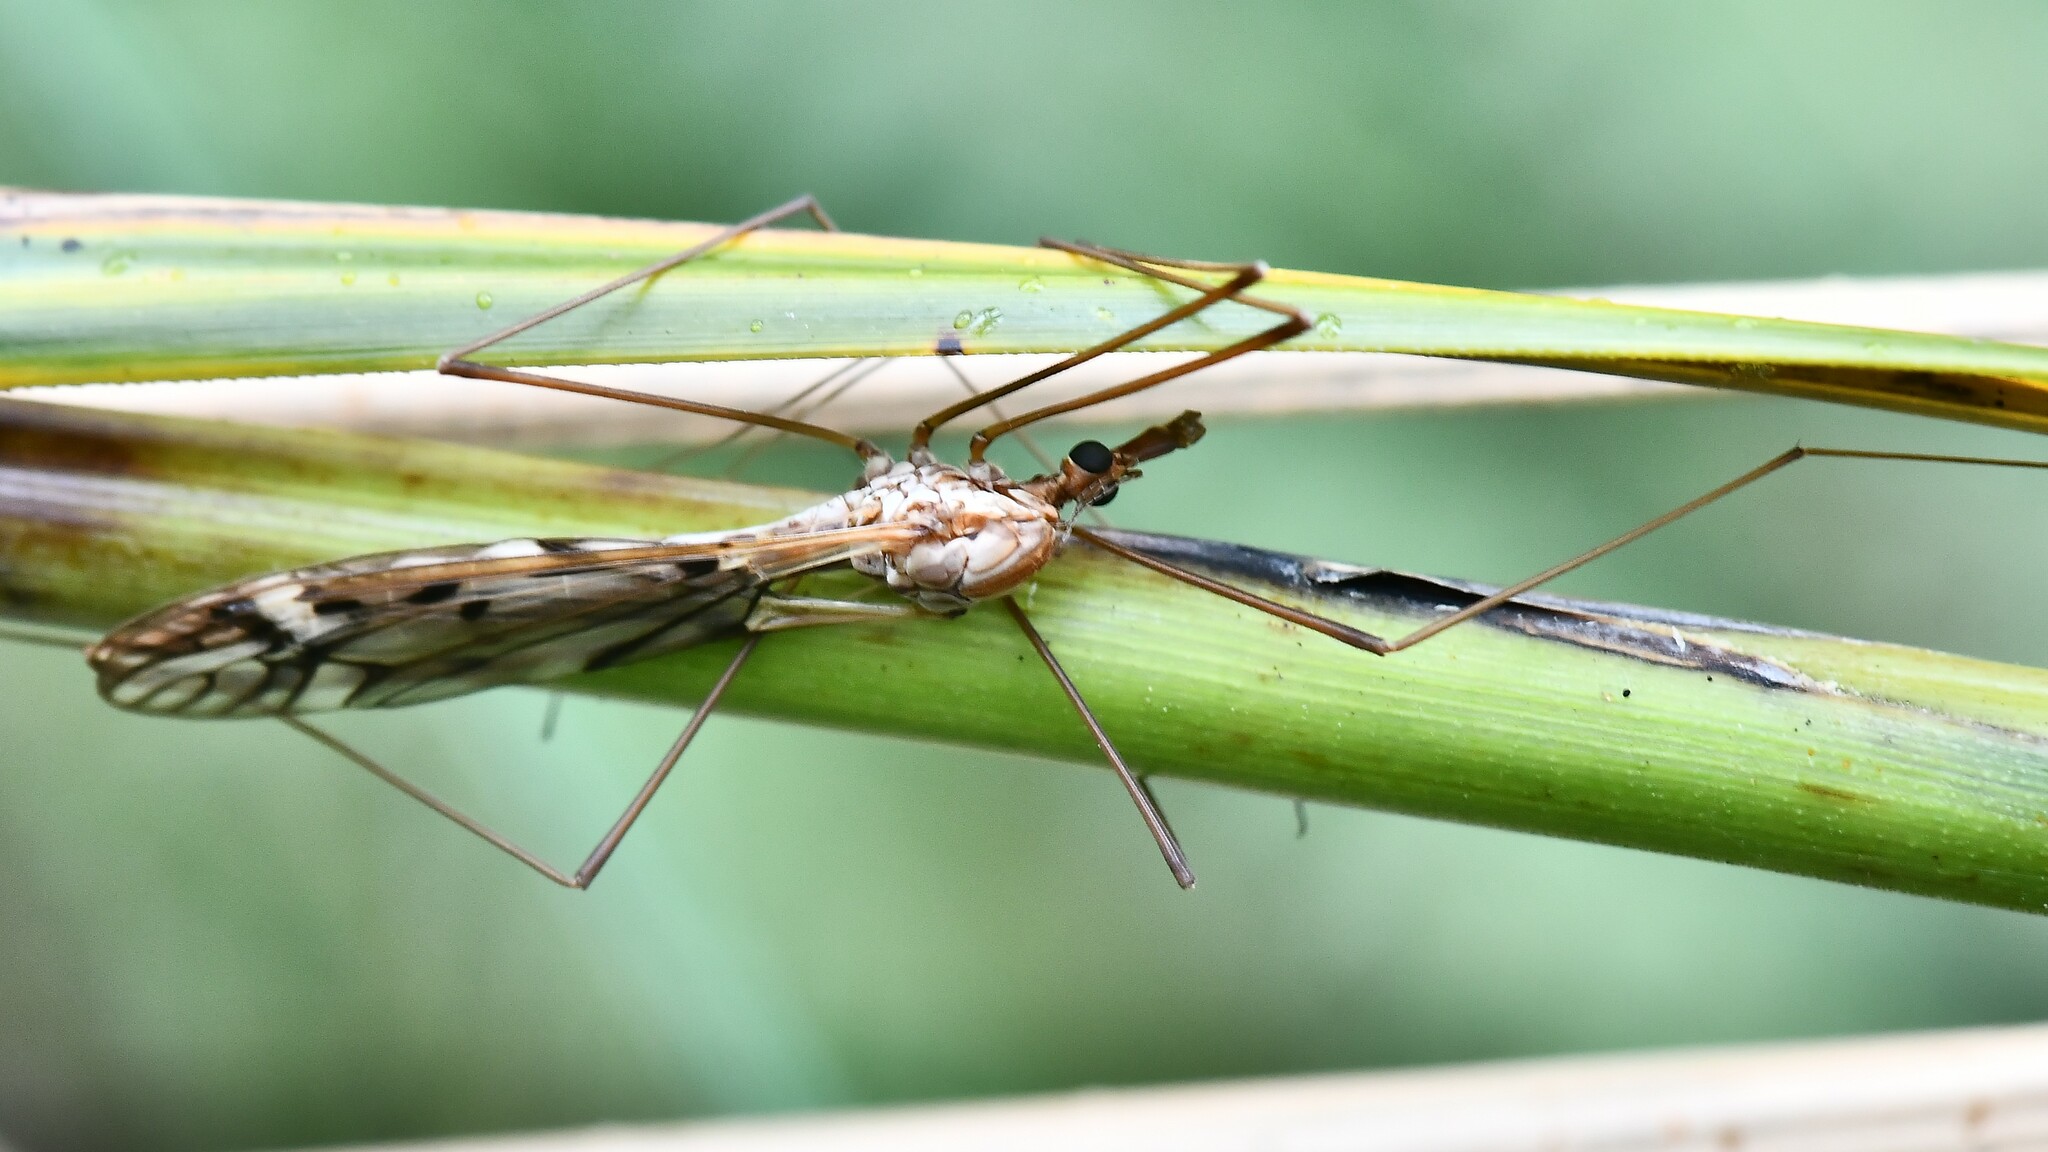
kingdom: Animalia
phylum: Arthropoda
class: Insecta
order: Diptera
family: Tipulidae
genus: Zelandotipula
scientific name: Zelandotipula novarae
